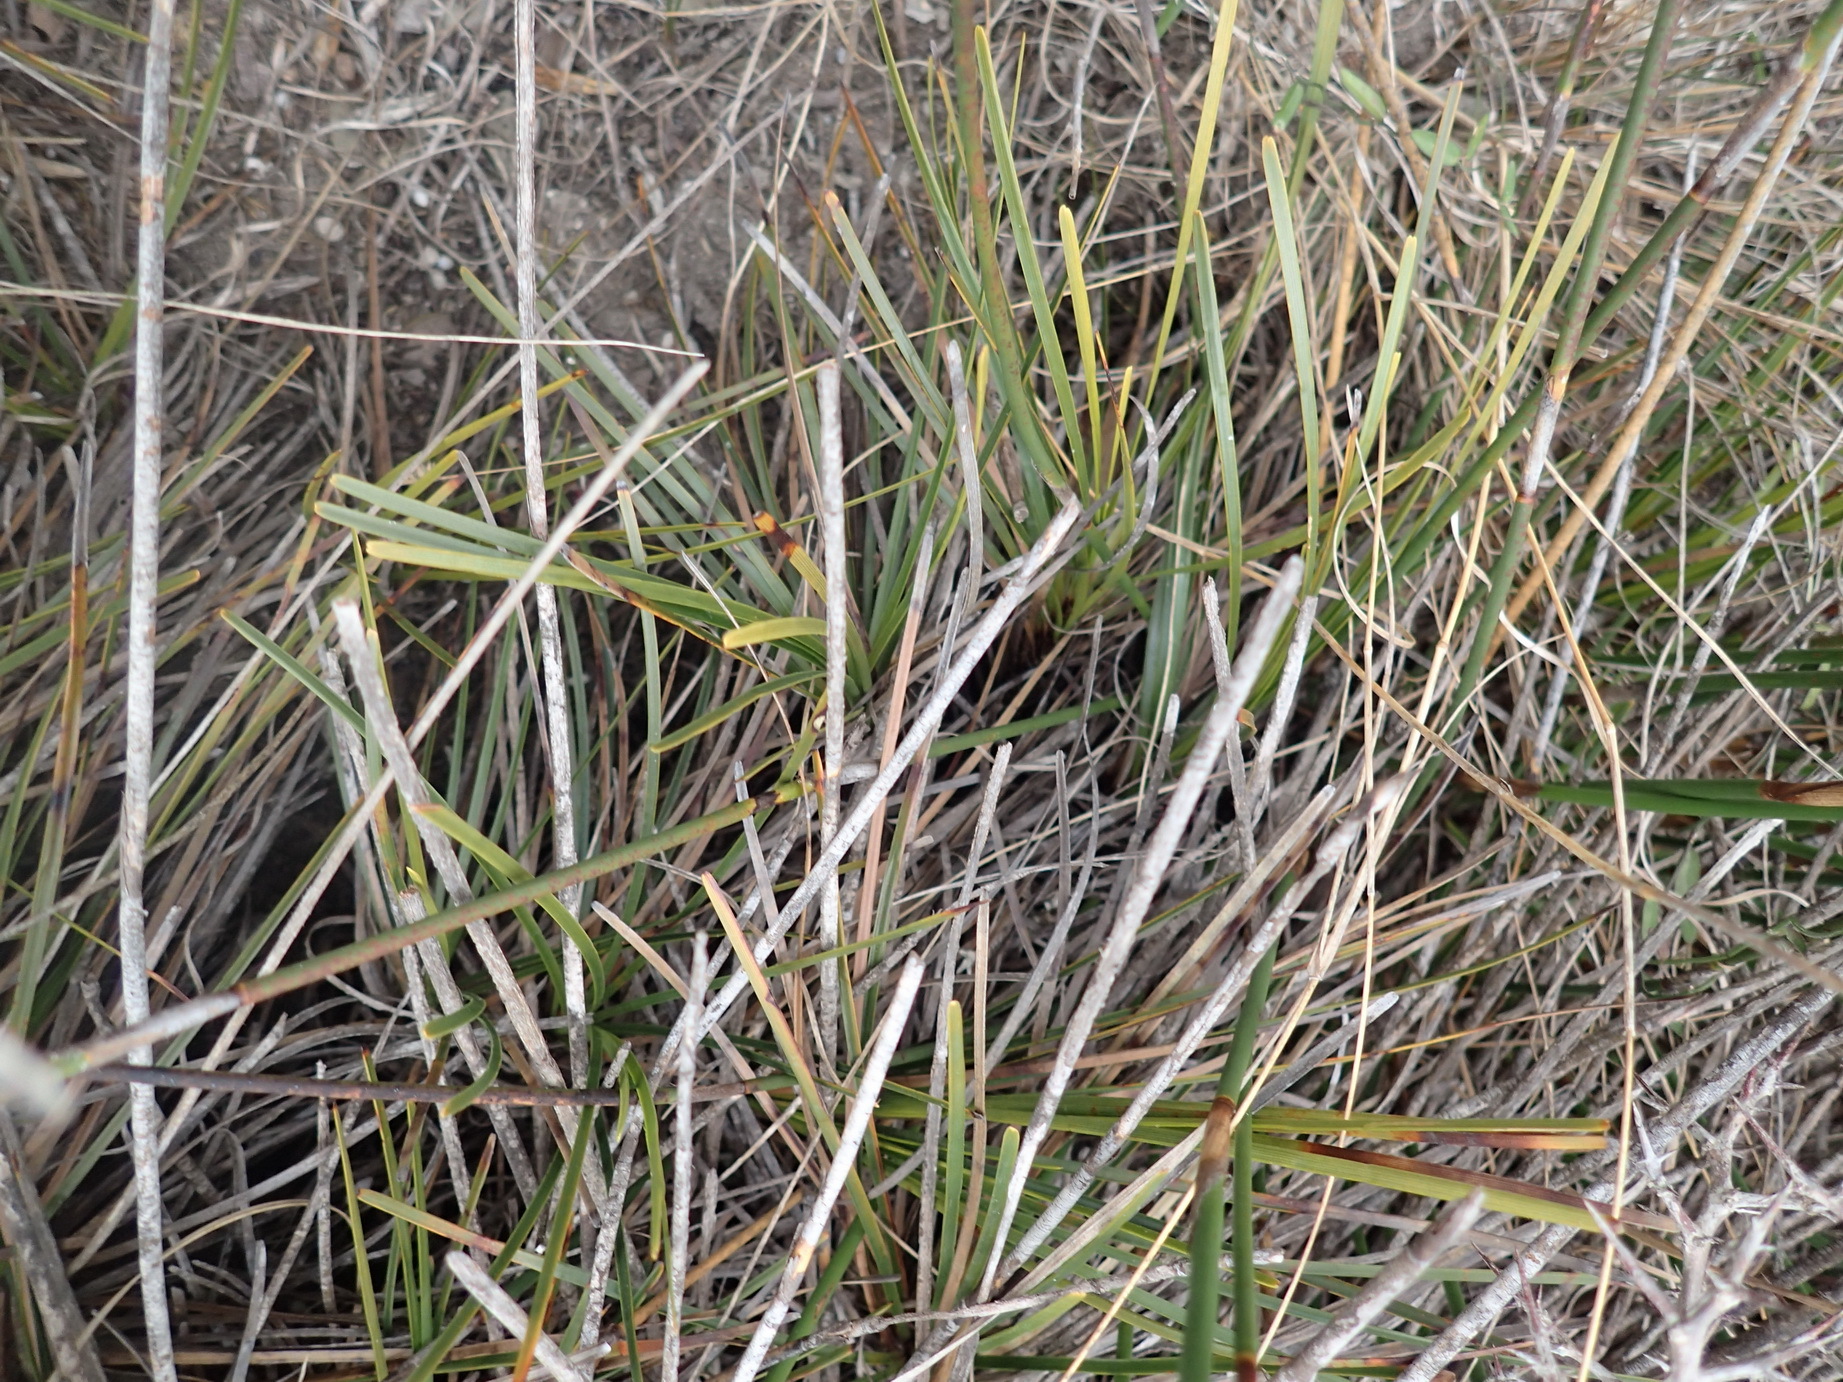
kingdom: Plantae
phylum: Tracheophyta
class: Liliopsida
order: Poales
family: Cyperaceae
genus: Ficinia
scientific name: Ficinia praemorsa
